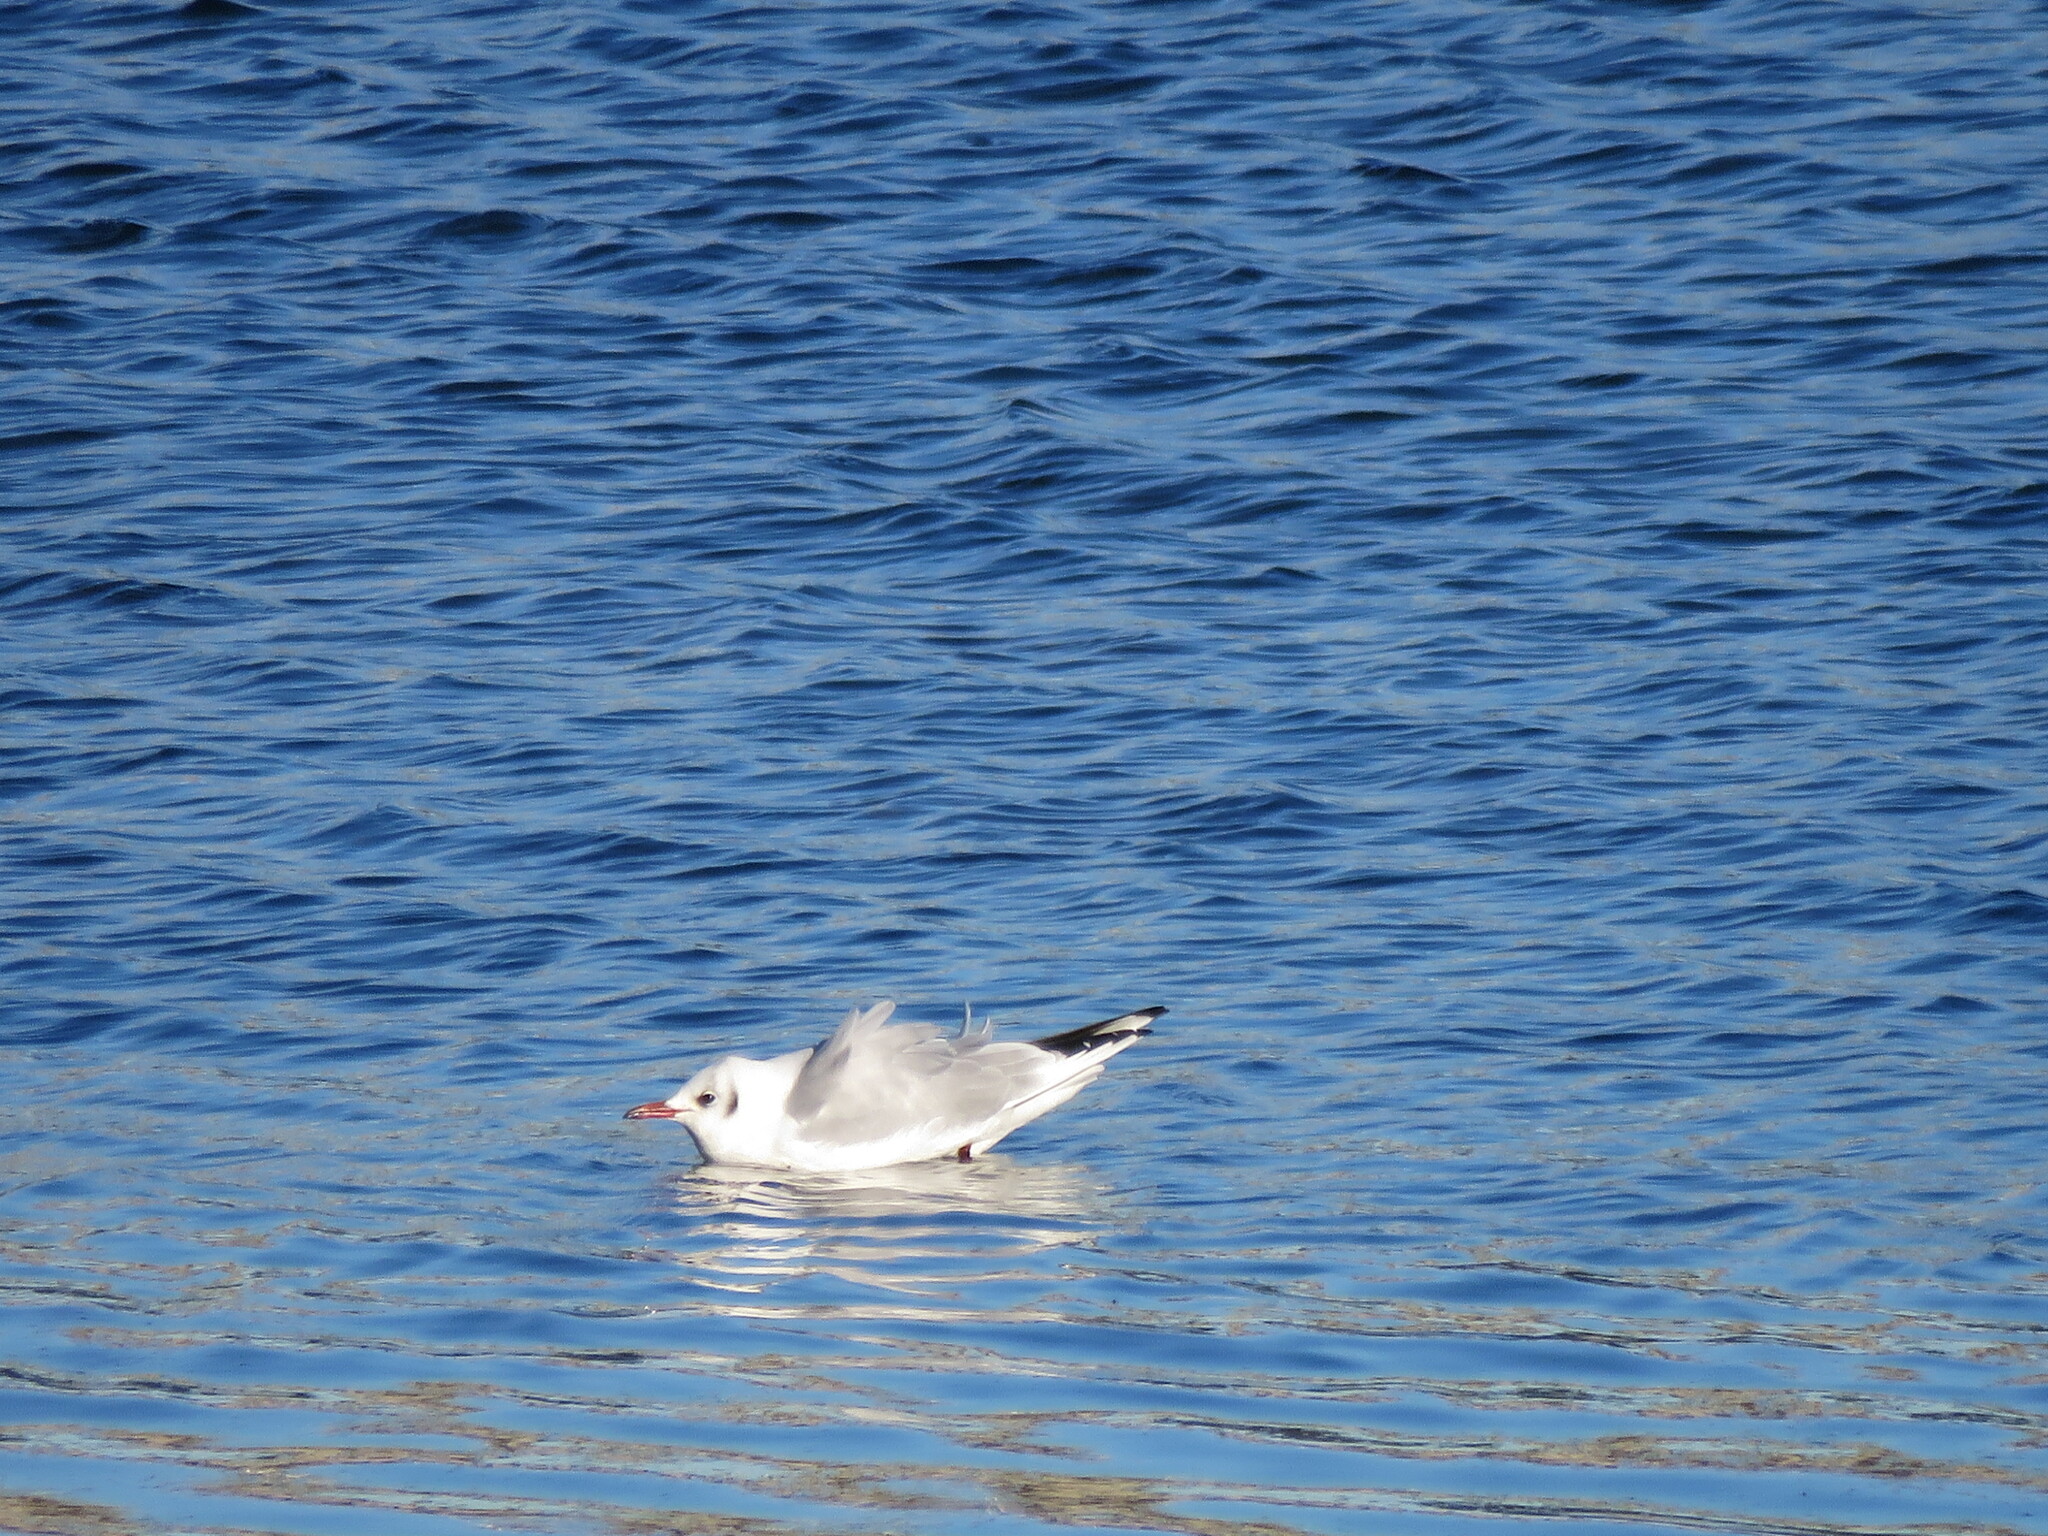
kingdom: Animalia
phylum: Chordata
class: Aves
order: Charadriiformes
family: Laridae
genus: Chroicocephalus
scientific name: Chroicocephalus ridibundus
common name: Black-headed gull
